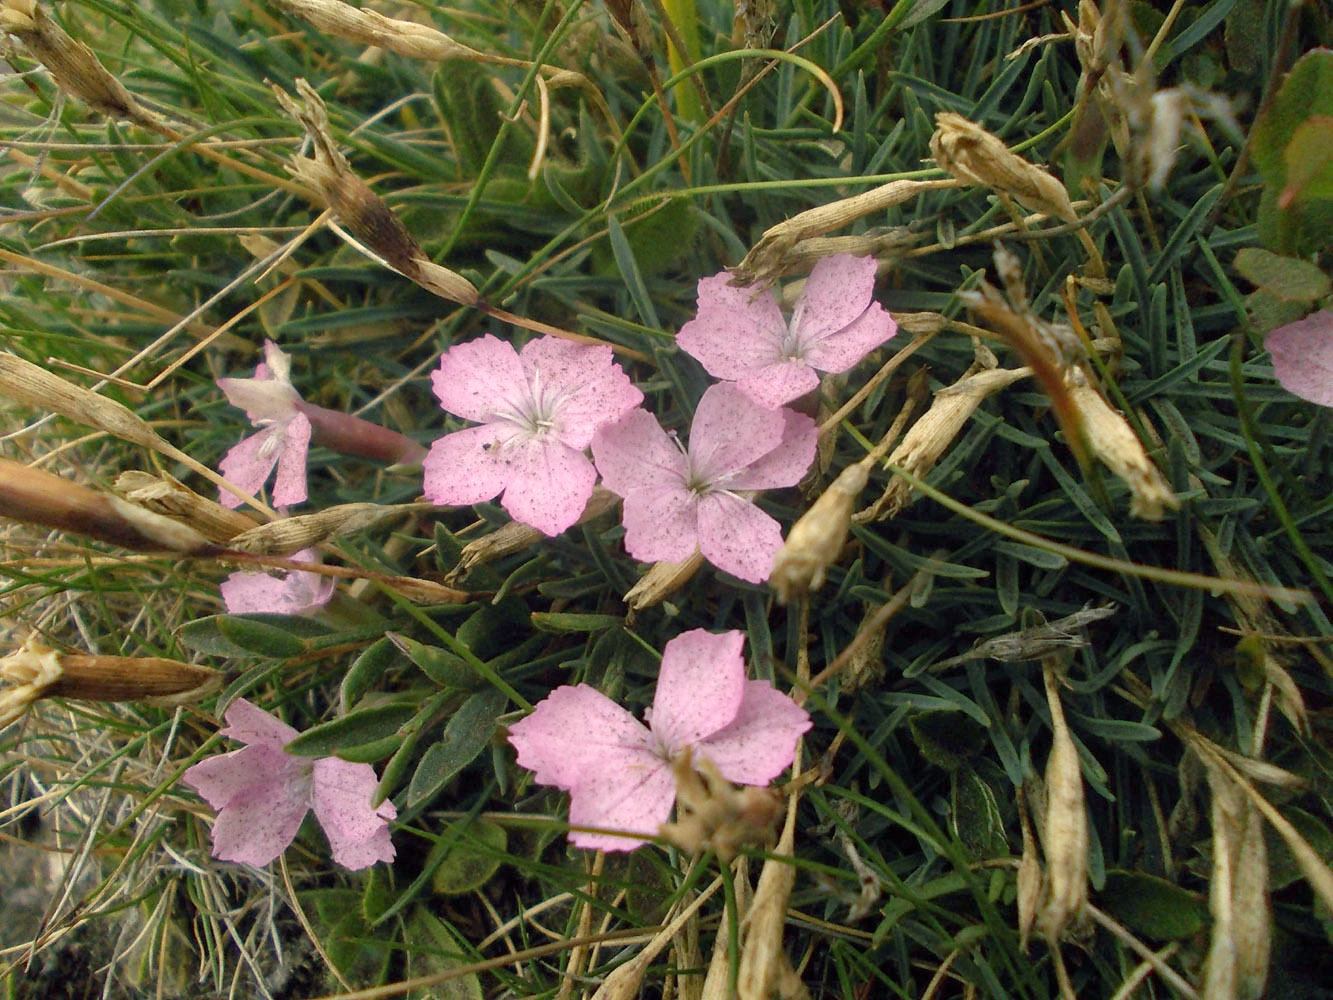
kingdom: Plantae
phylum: Tracheophyta
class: Magnoliopsida
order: Caryophyllales
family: Caryophyllaceae
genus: Dianthus
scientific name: Dianthus microlepis
